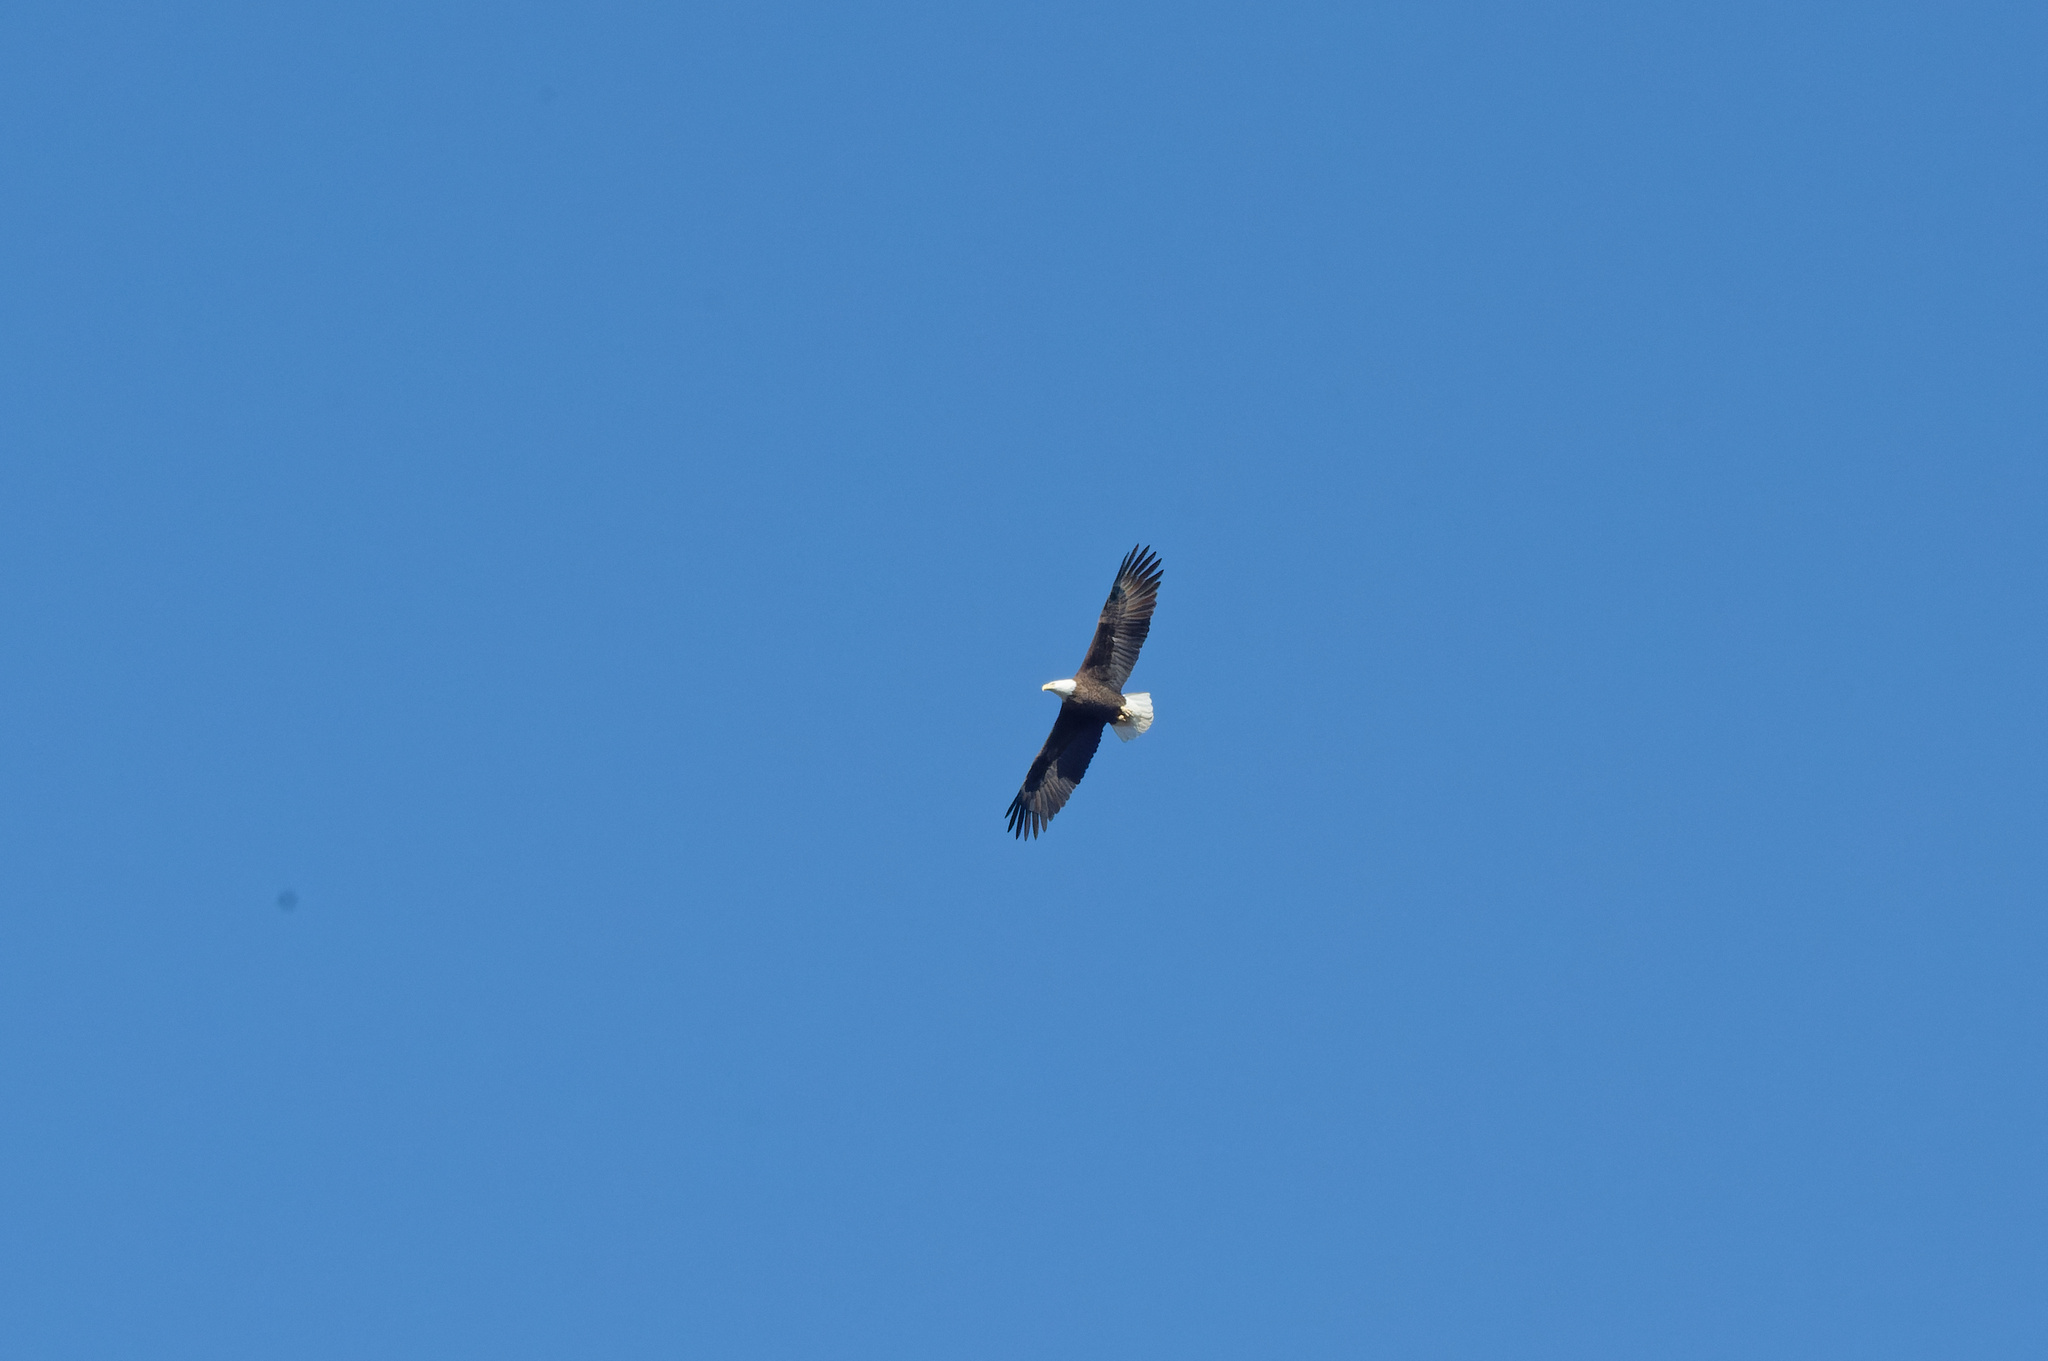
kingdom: Animalia
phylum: Chordata
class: Aves
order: Accipitriformes
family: Accipitridae
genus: Haliaeetus
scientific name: Haliaeetus leucocephalus
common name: Bald eagle
